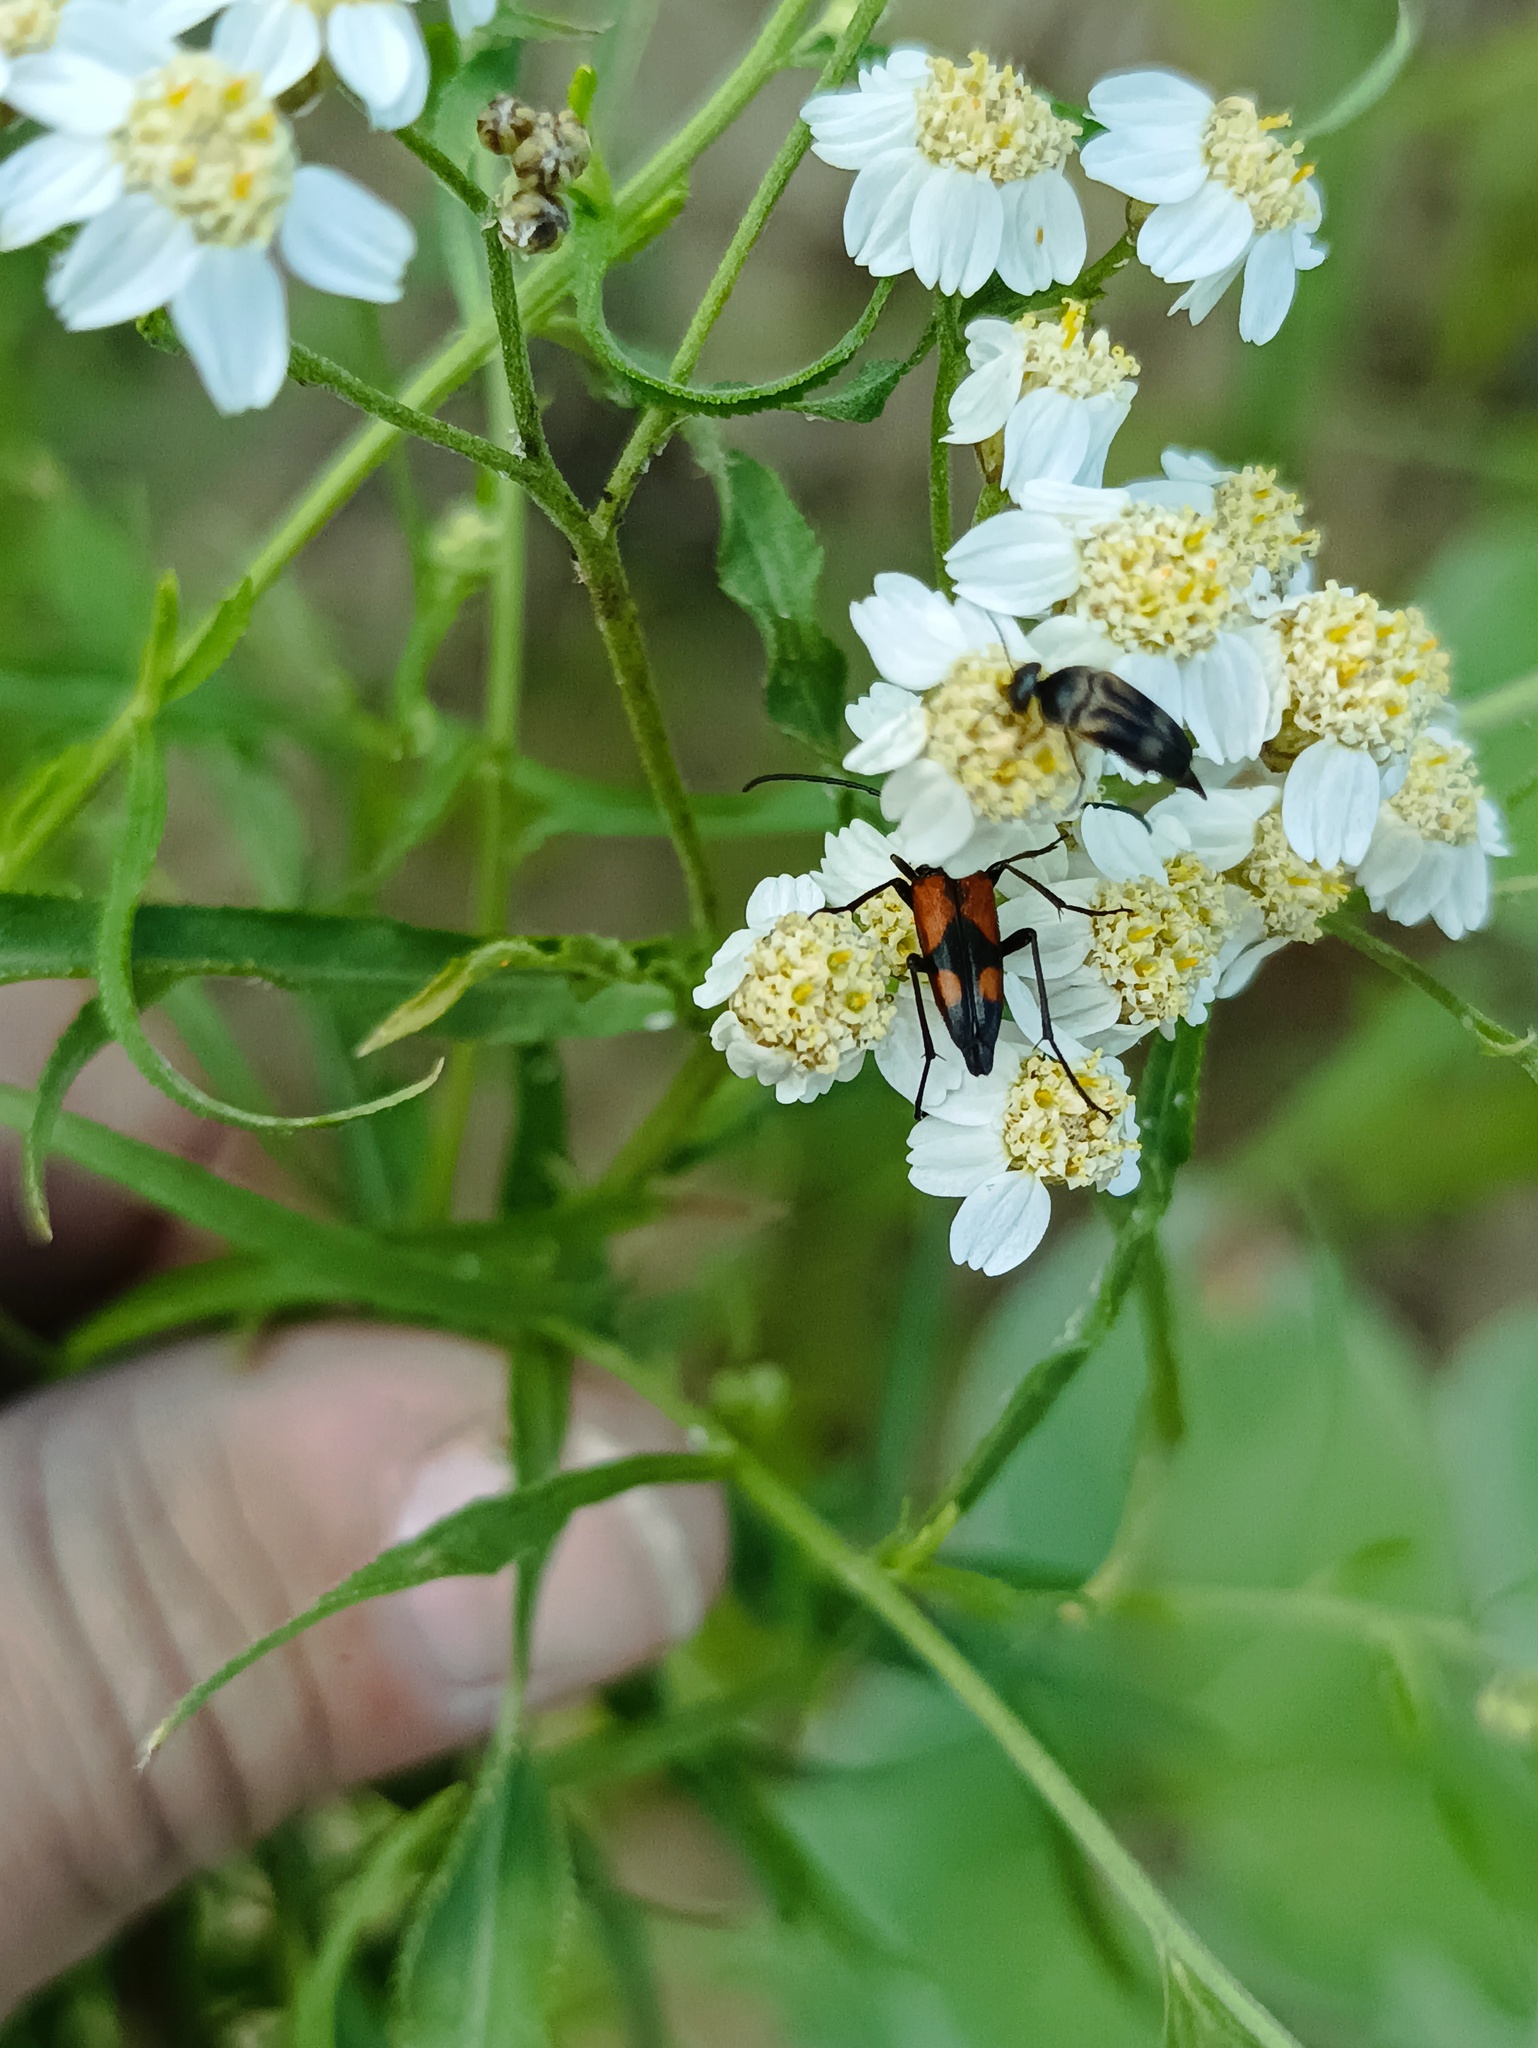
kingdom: Animalia
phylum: Arthropoda
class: Insecta
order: Coleoptera
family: Cerambycidae
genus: Stenurella
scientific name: Stenurella bifasciata
